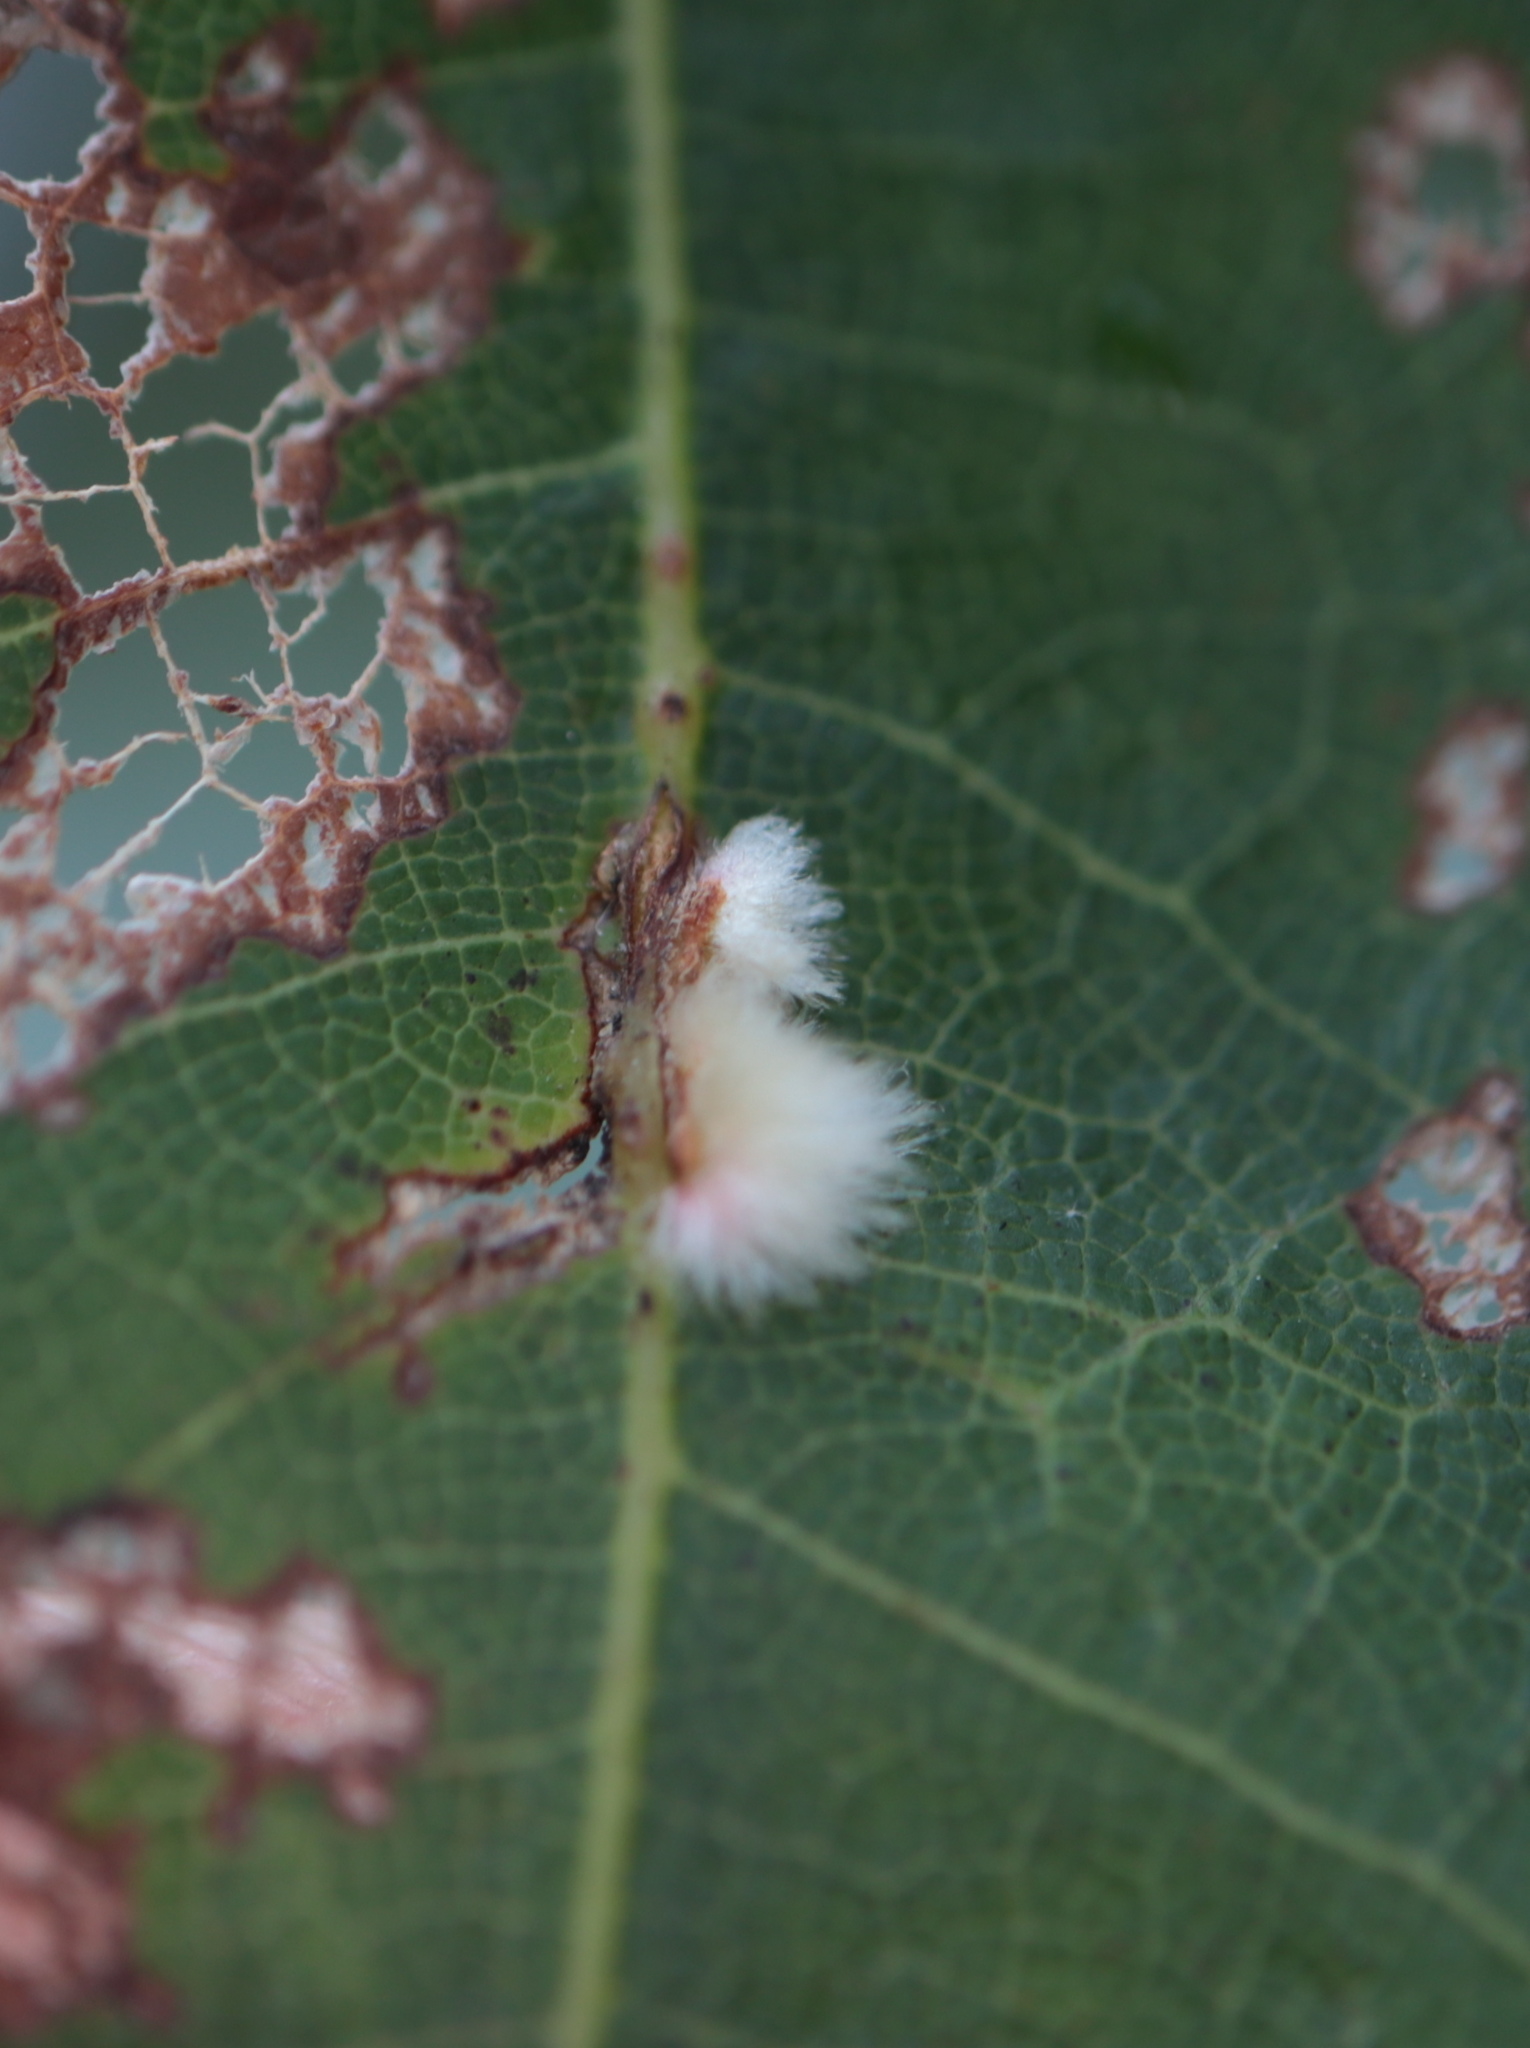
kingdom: Animalia
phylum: Arthropoda
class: Insecta
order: Hymenoptera
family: Cynipidae
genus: Callirhytis
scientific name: Callirhytis
